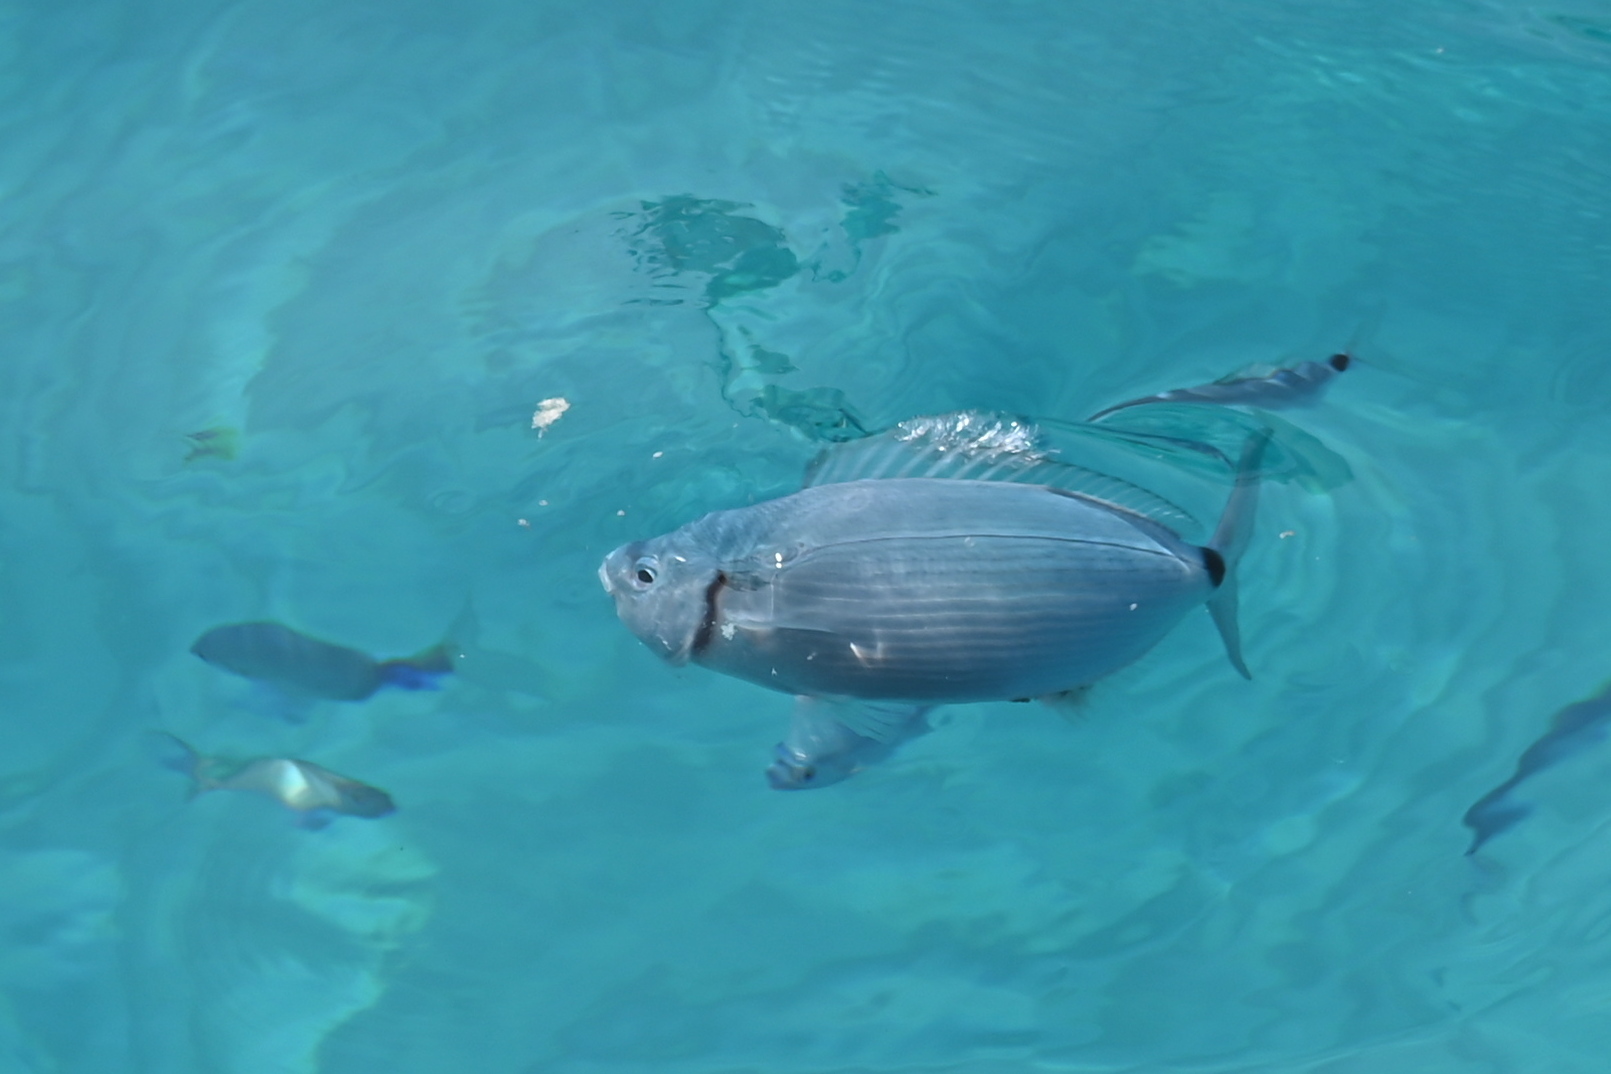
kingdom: Animalia
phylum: Chordata
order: Perciformes
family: Sparidae
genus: Oblada
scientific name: Oblada melanura
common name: Saddled seabream
